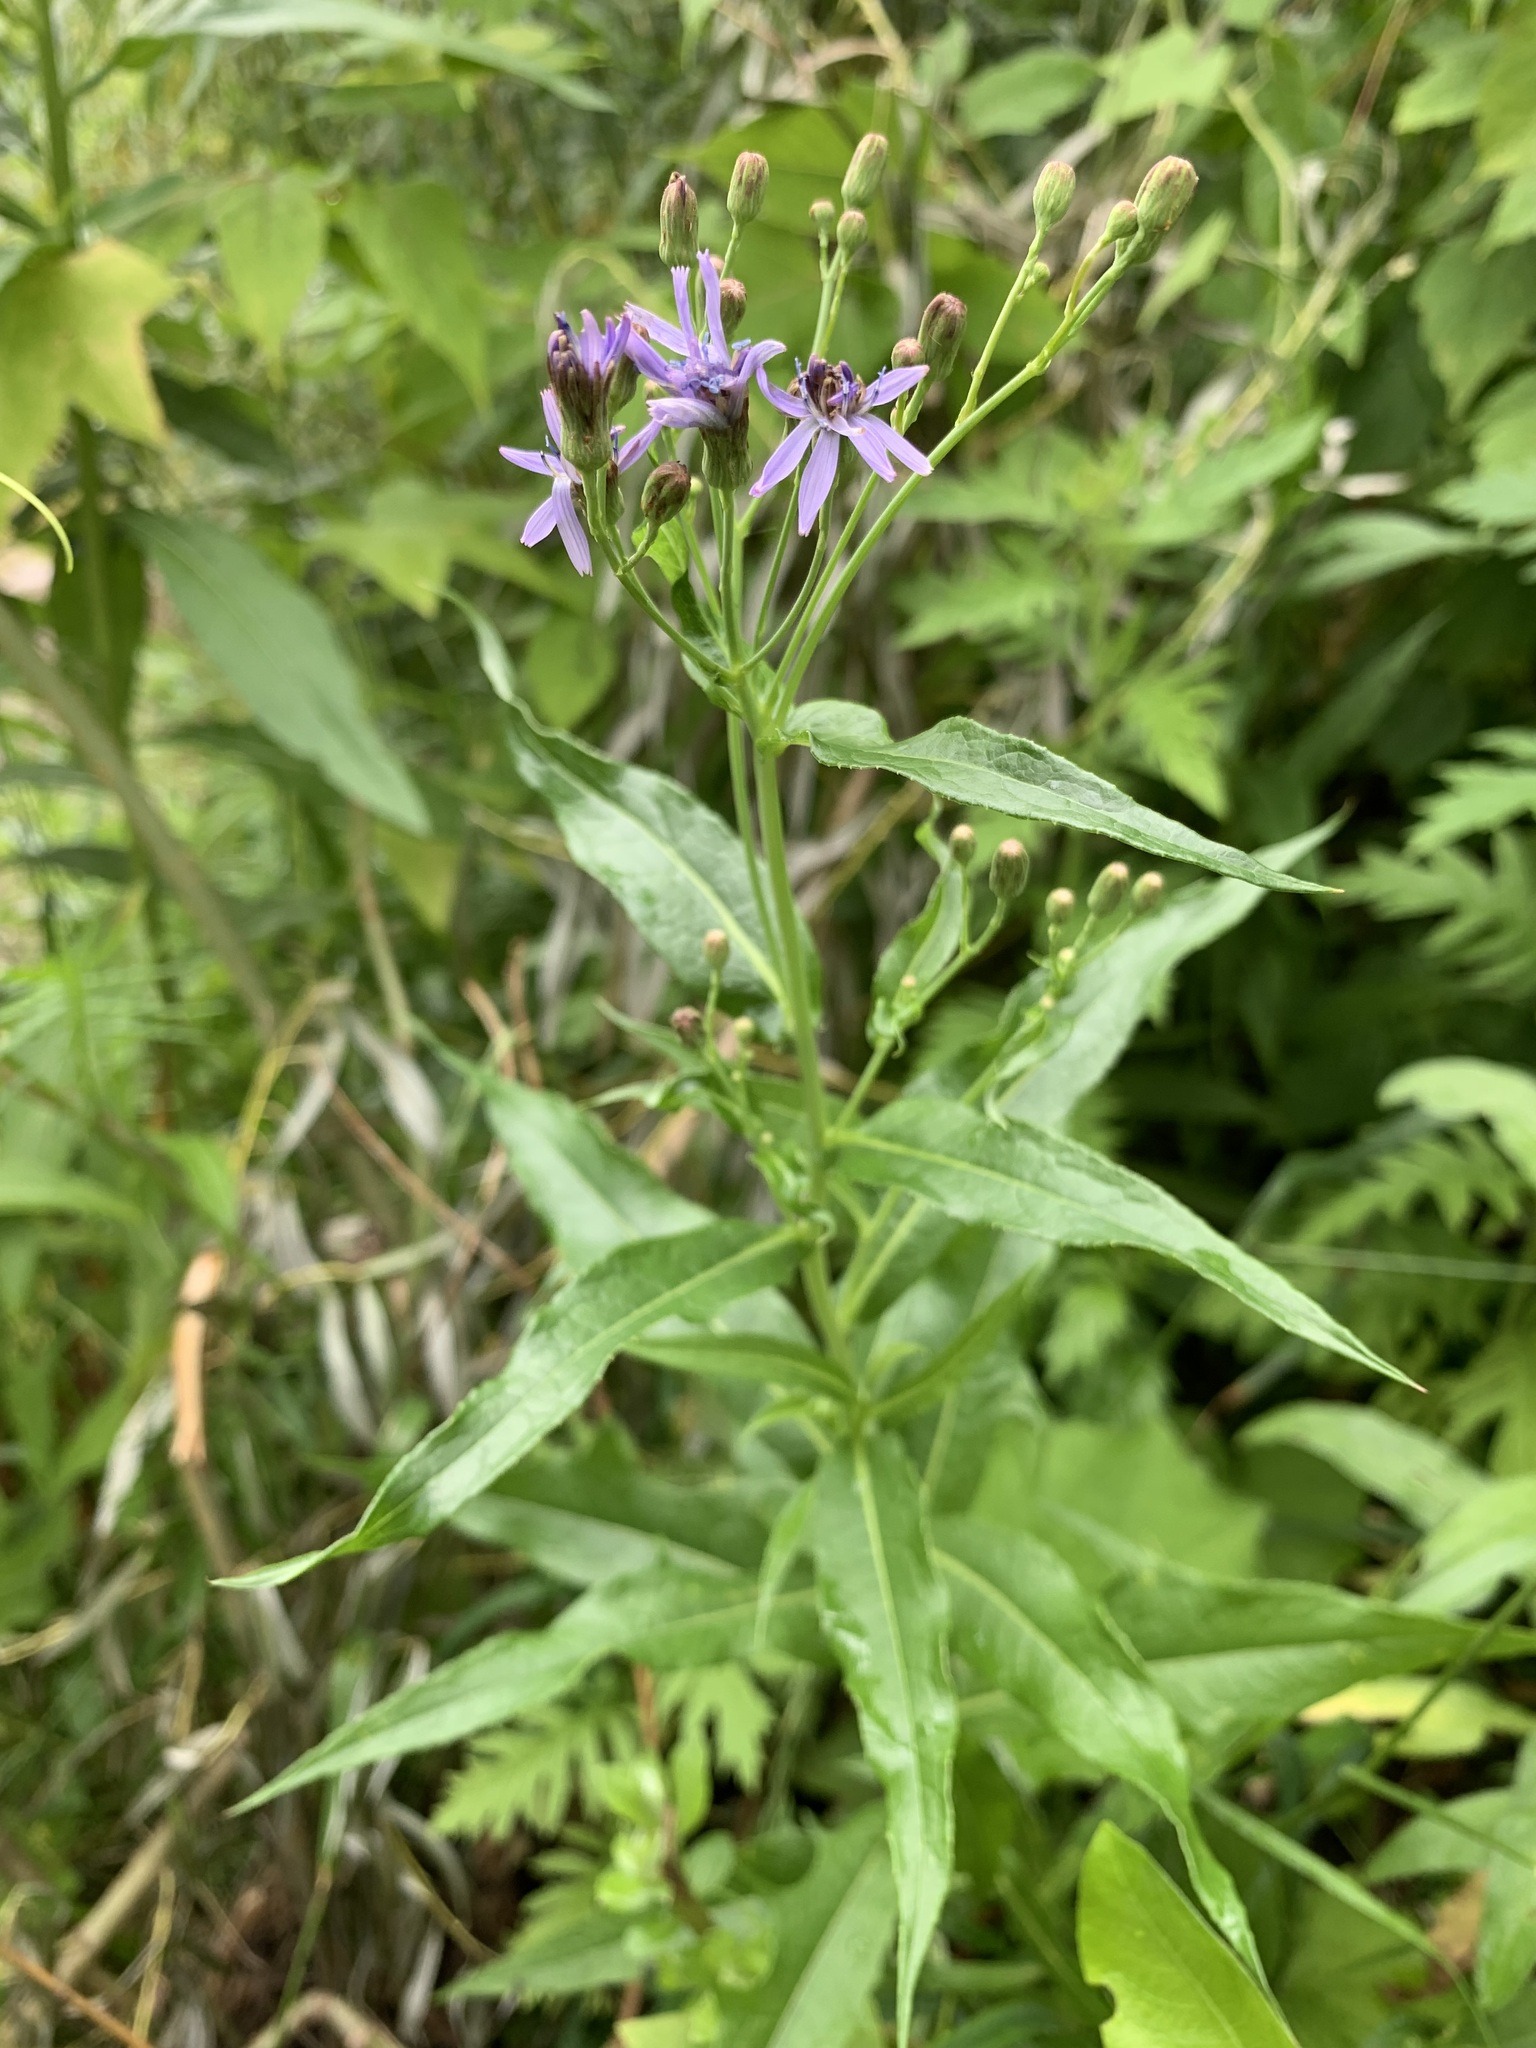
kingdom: Plantae
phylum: Tracheophyta
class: Magnoliopsida
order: Asterales
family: Asteraceae
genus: Lactuca
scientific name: Lactuca sibirica
